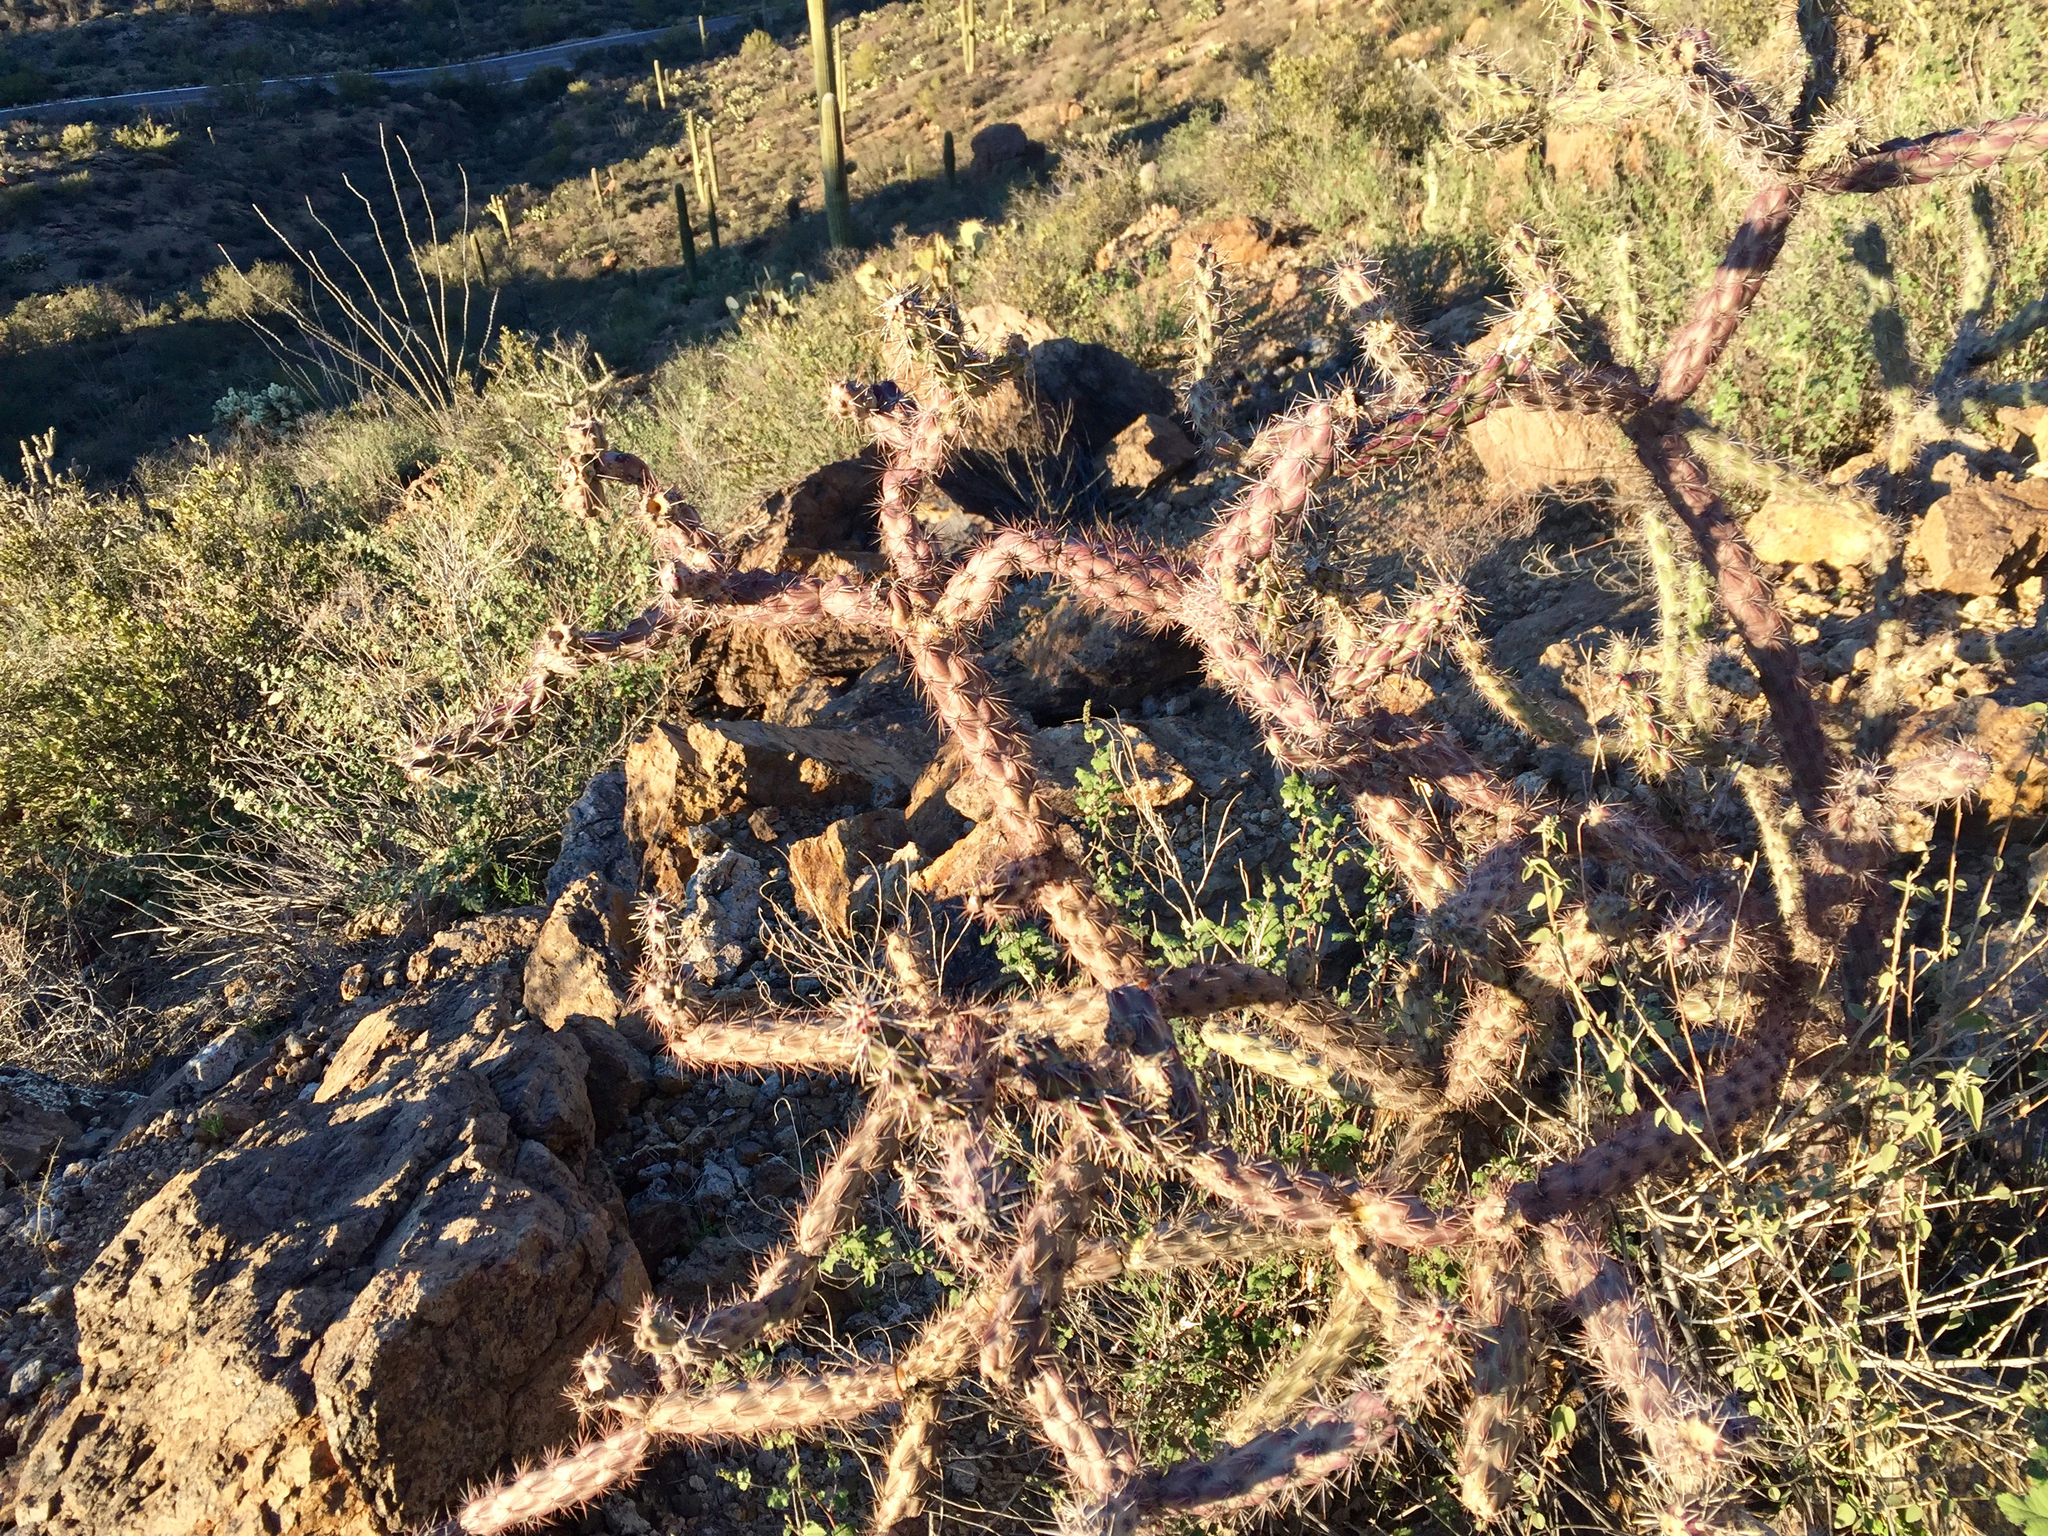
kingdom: Plantae
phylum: Tracheophyta
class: Magnoliopsida
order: Caryophyllales
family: Cactaceae
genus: Cylindropuntia
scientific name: Cylindropuntia thurberi
